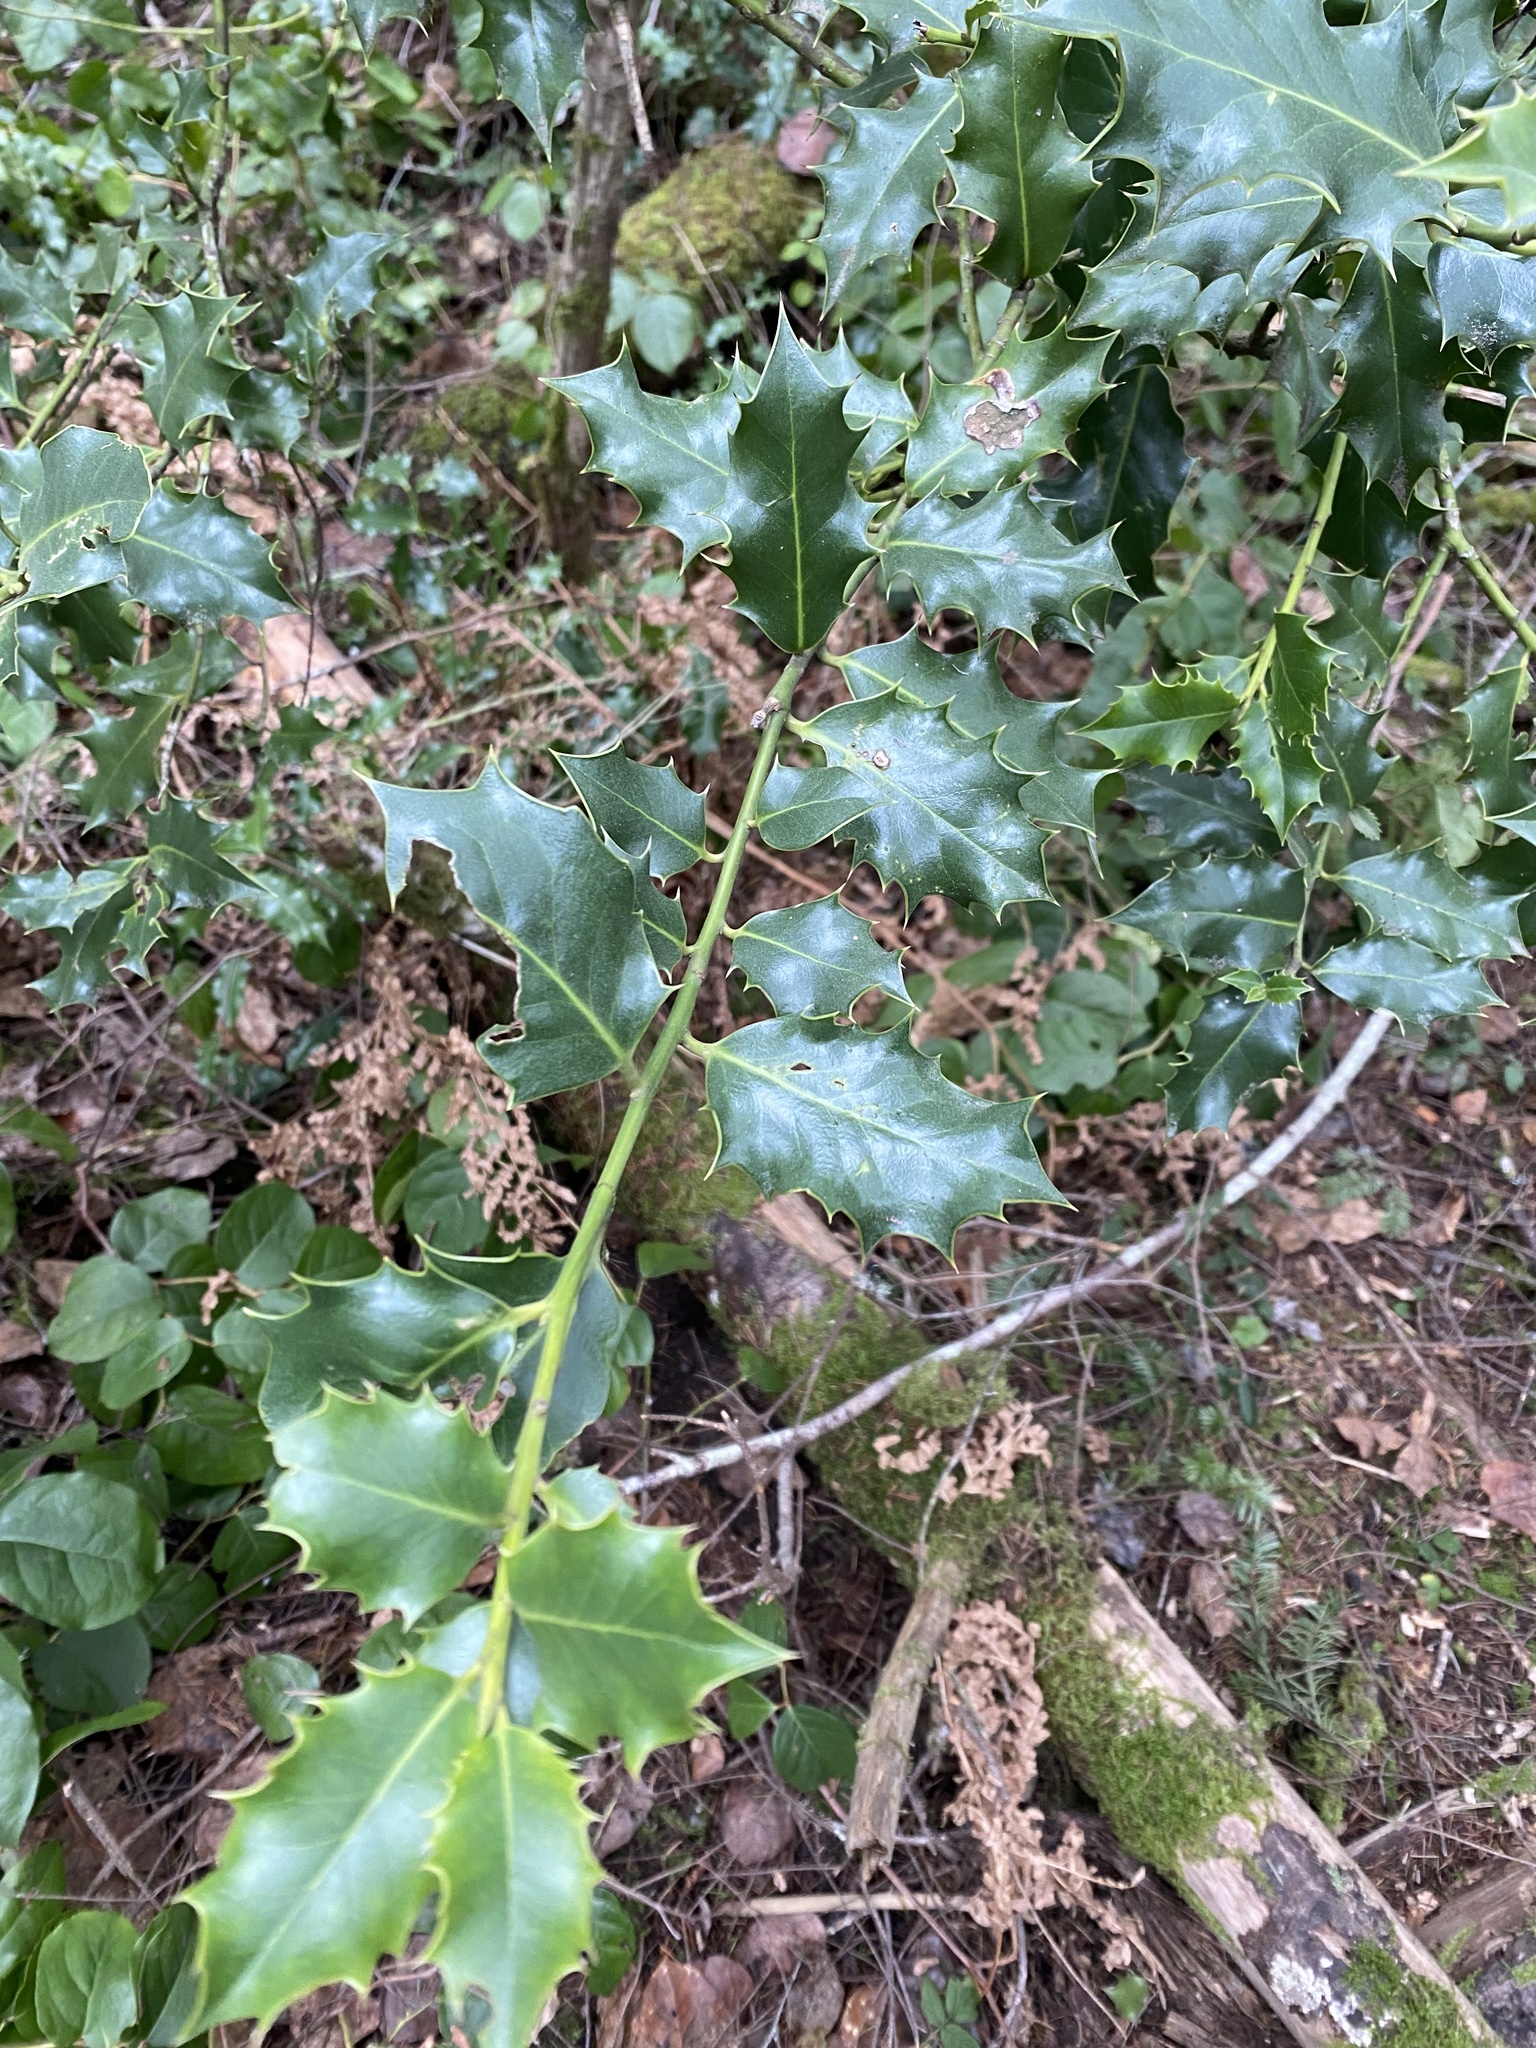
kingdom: Plantae
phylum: Tracheophyta
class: Magnoliopsida
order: Aquifoliales
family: Aquifoliaceae
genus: Ilex
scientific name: Ilex aquifolium
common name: English holly
